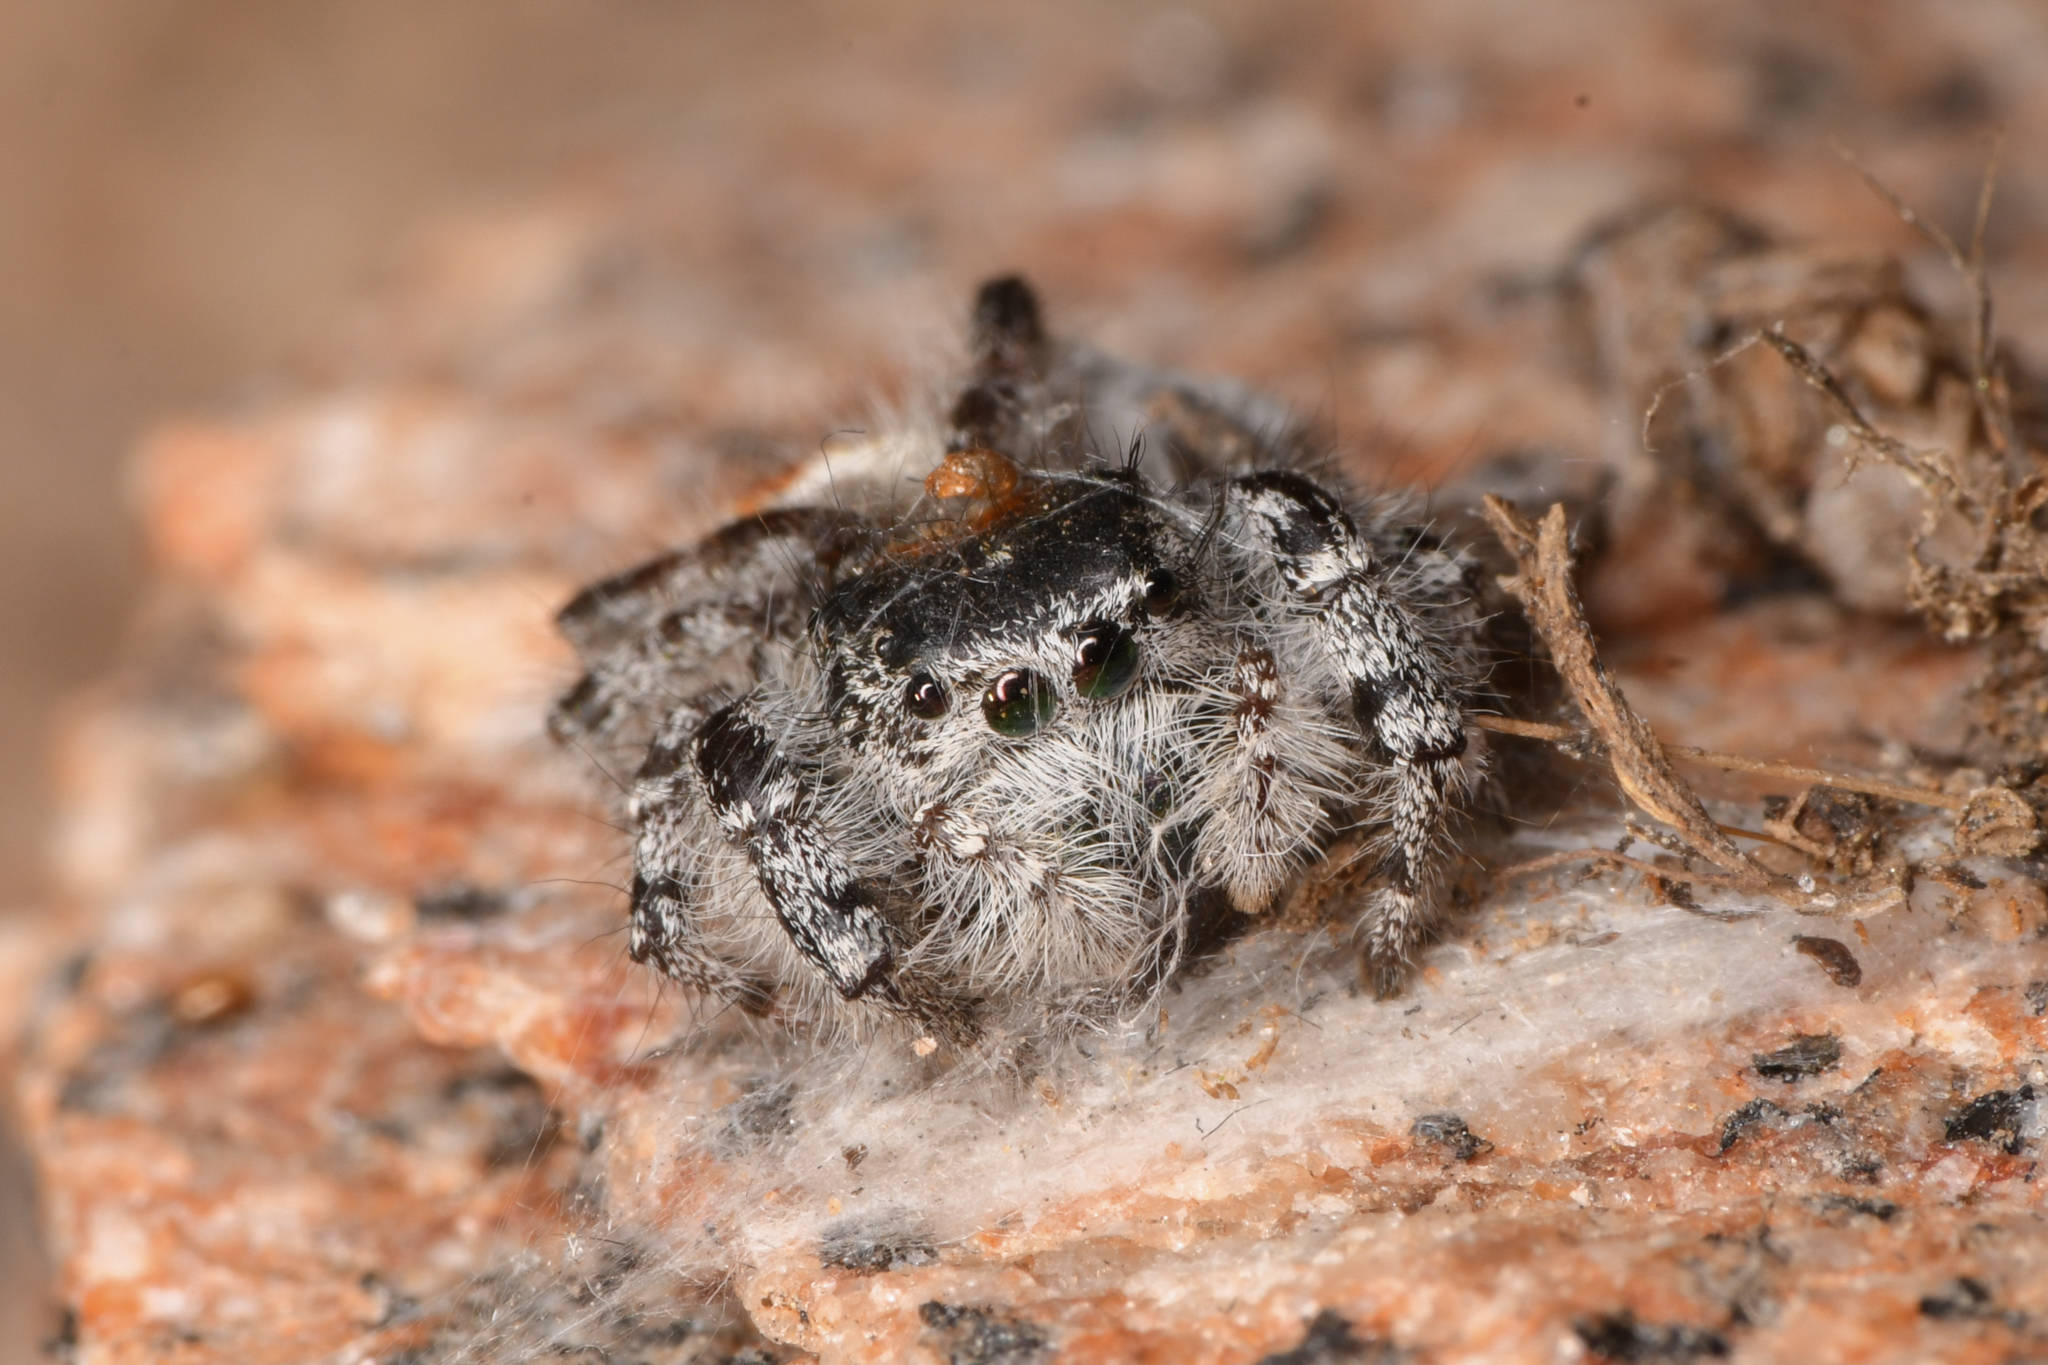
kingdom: Animalia
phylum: Arthropoda
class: Arachnida
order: Araneae
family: Salticidae
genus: Phidippus
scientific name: Phidippus adumbratus
